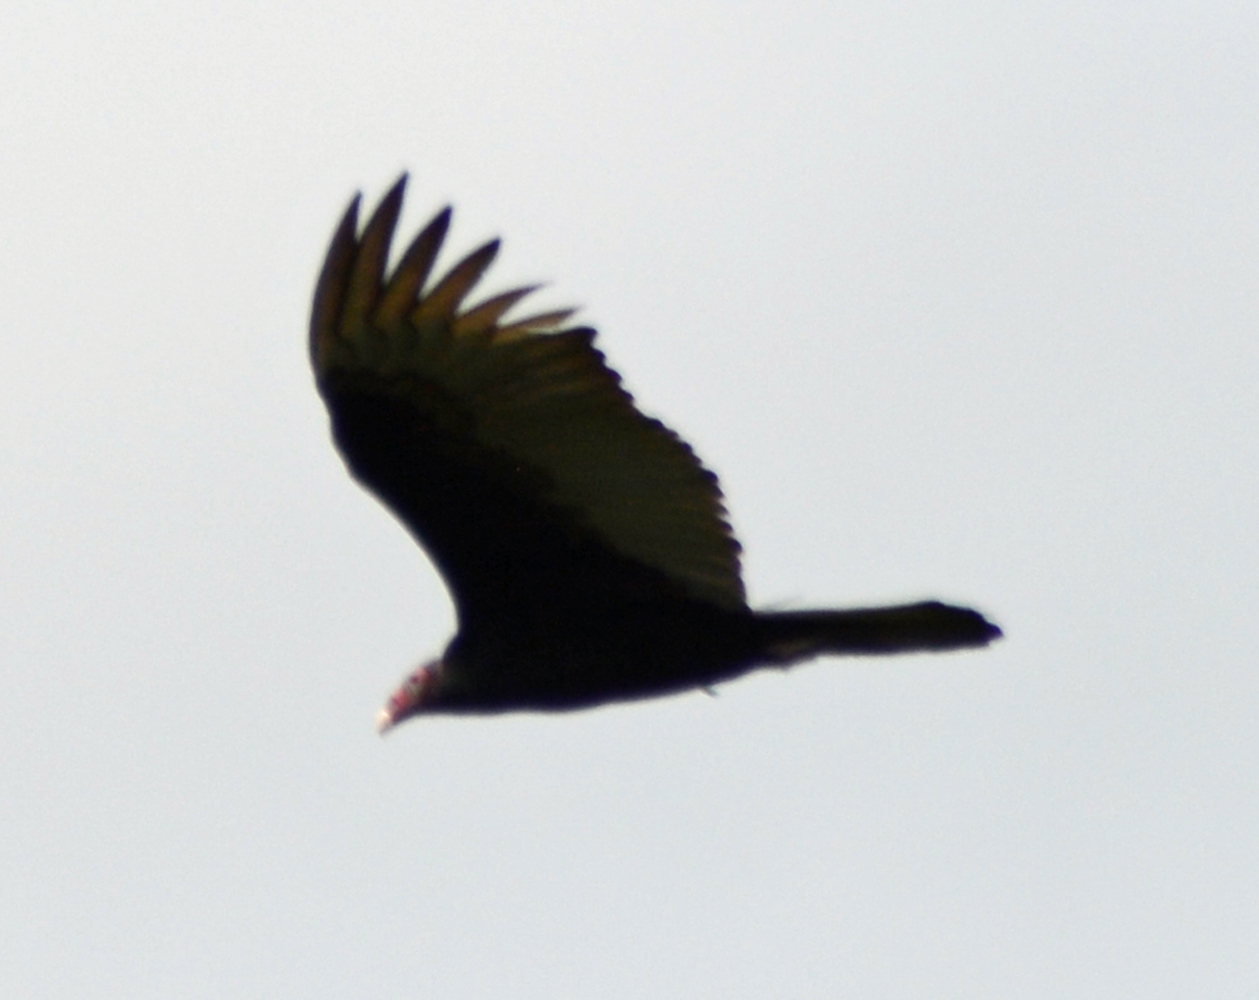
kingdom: Animalia
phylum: Chordata
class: Aves
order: Accipitriformes
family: Cathartidae
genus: Cathartes
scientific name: Cathartes aura
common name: Turkey vulture
